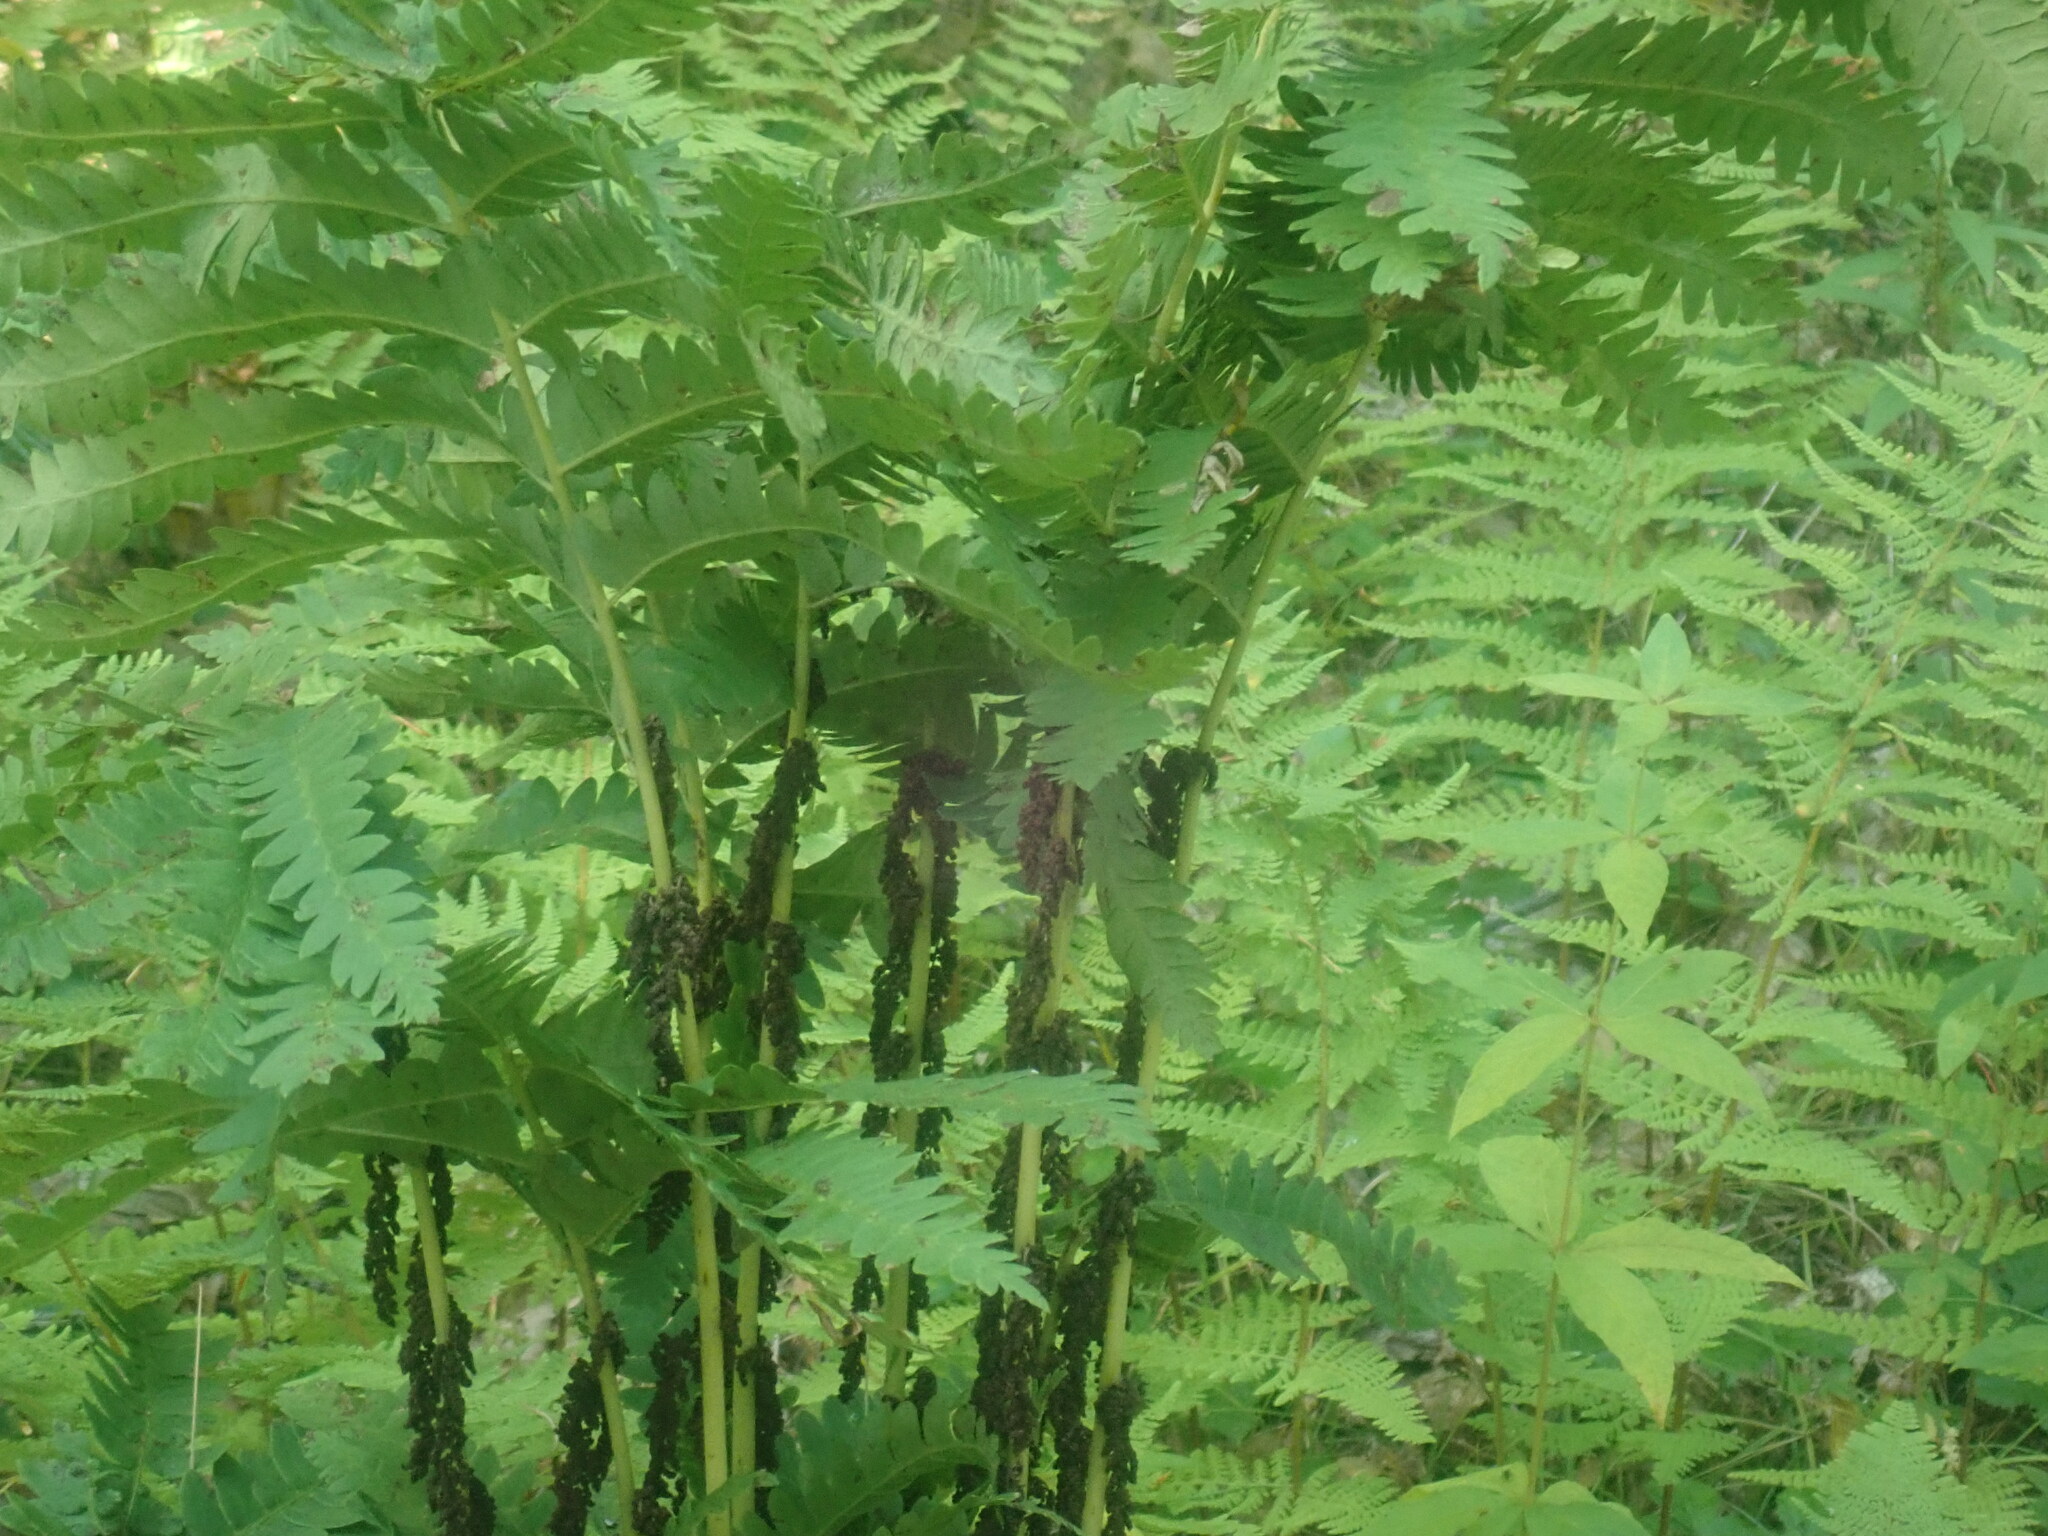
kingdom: Plantae
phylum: Tracheophyta
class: Polypodiopsida
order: Osmundales
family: Osmundaceae
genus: Claytosmunda
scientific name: Claytosmunda claytoniana
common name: Clayton's fern
